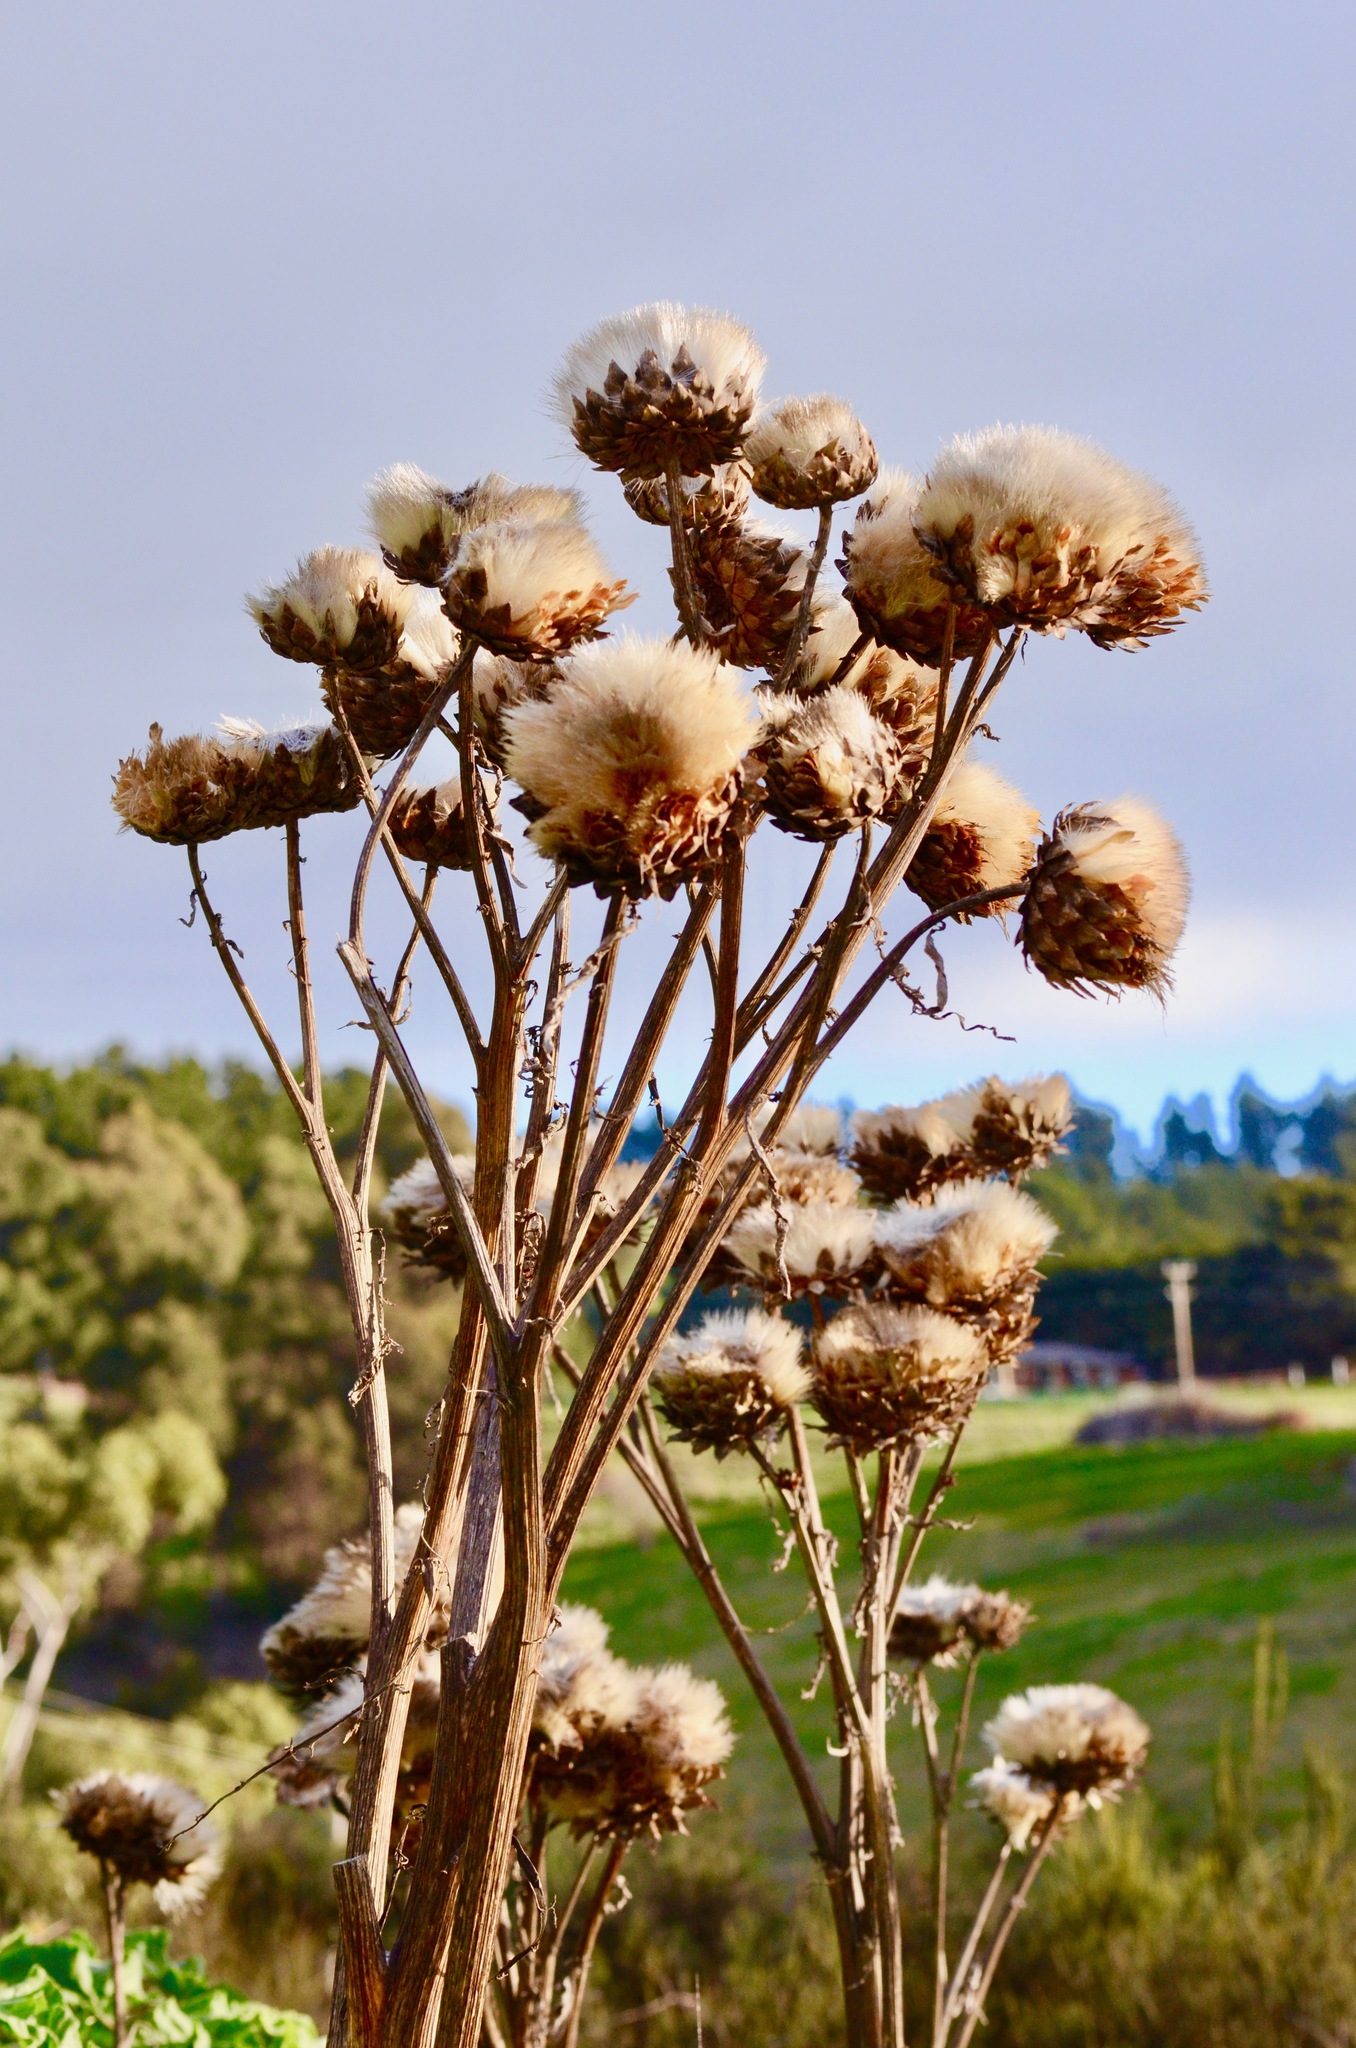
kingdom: Plantae
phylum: Tracheophyta
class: Magnoliopsida
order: Asterales
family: Asteraceae
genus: Cynara
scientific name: Cynara cardunculus
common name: Globe artichoke
